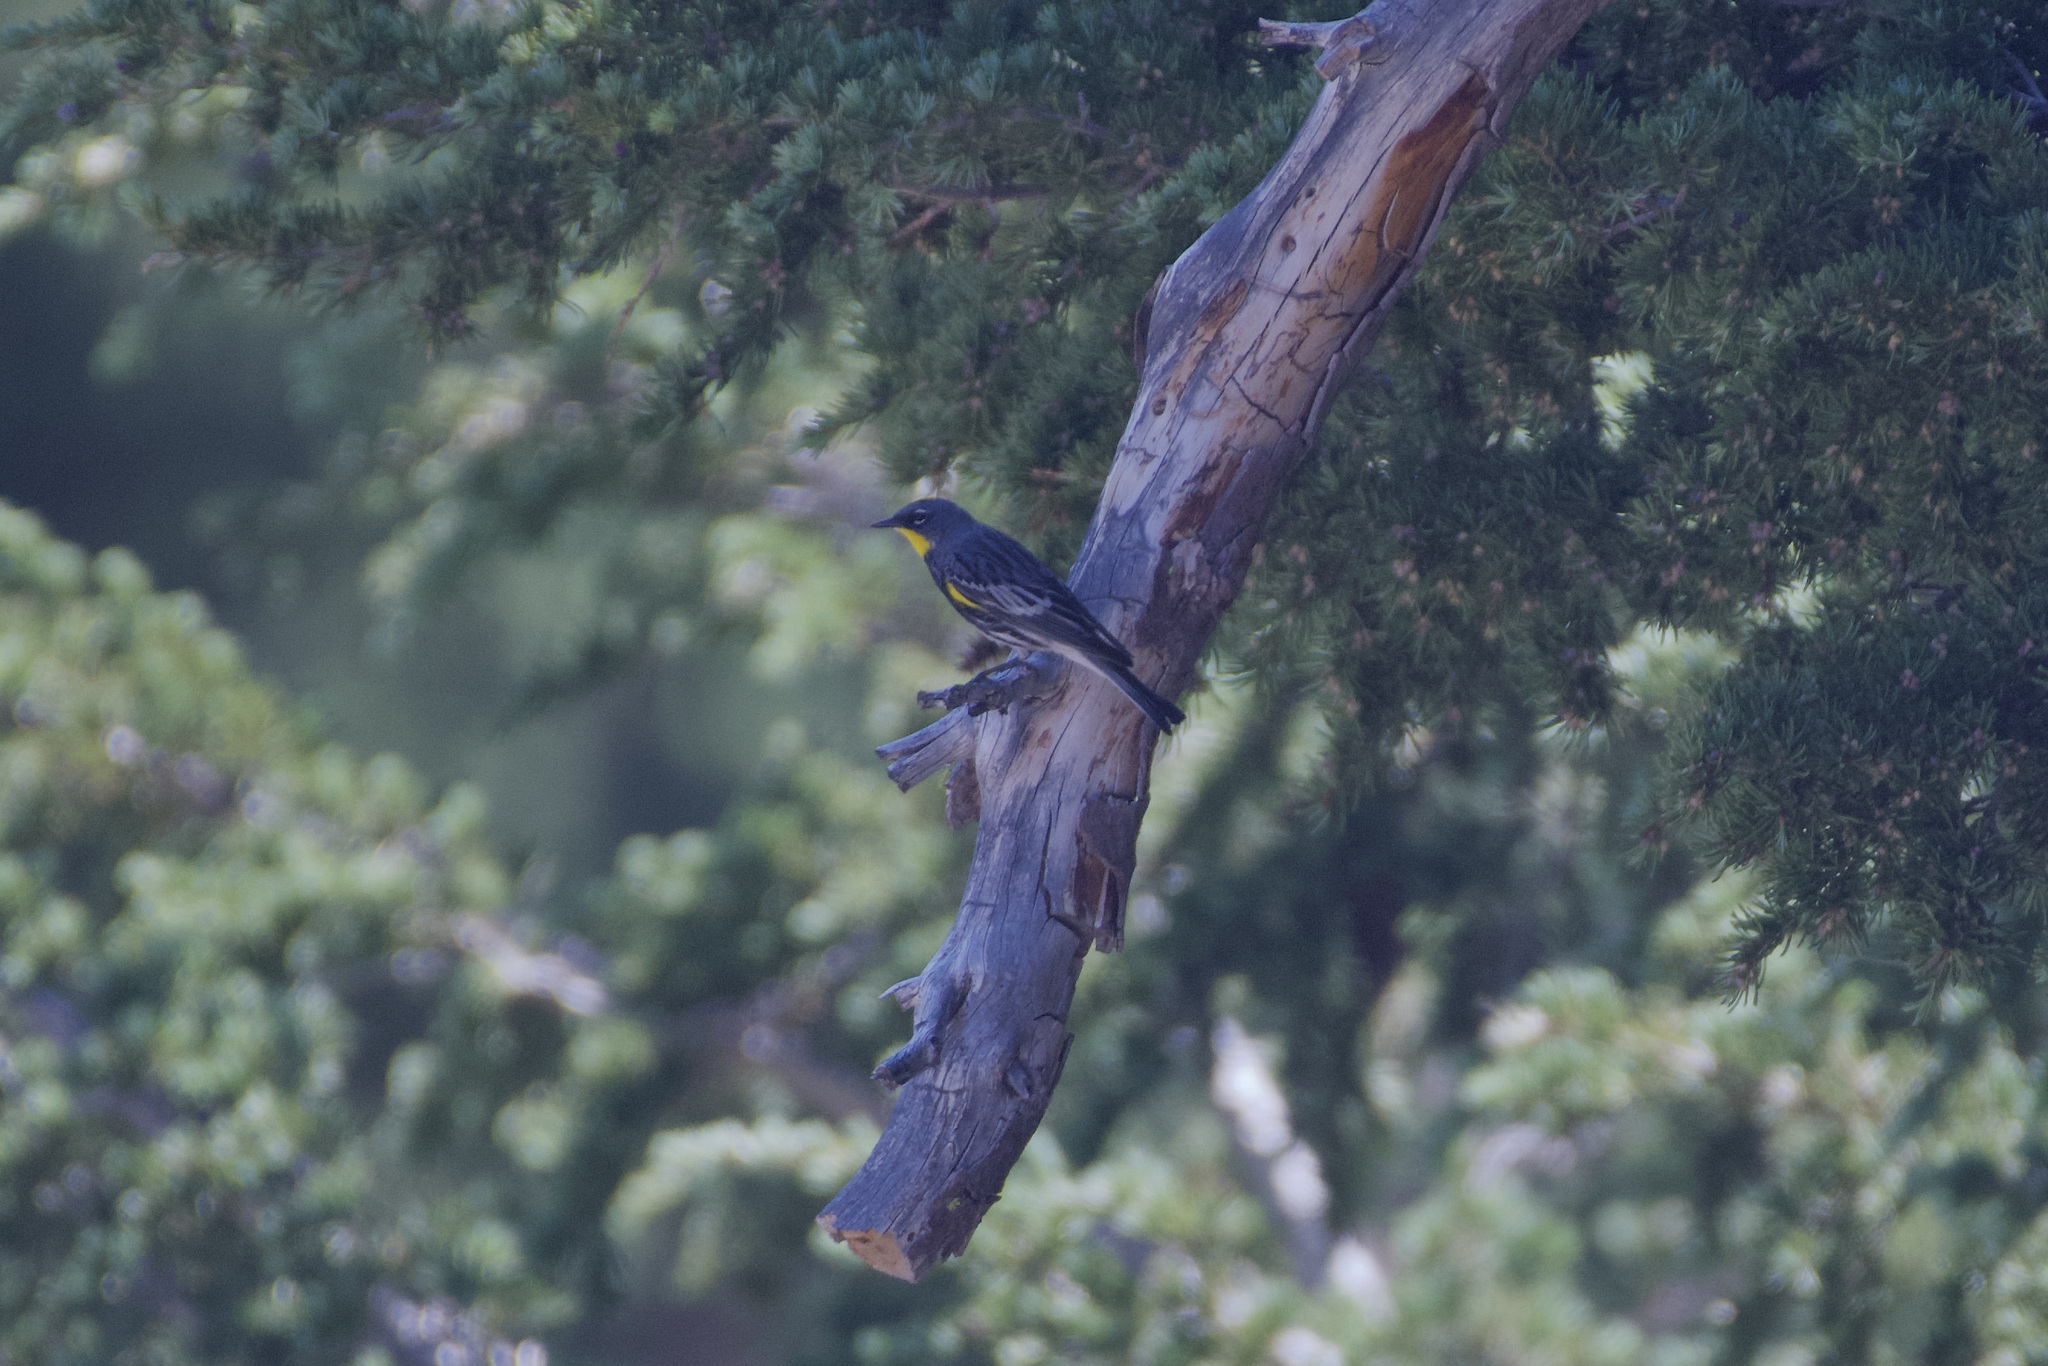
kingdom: Animalia
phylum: Chordata
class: Aves
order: Passeriformes
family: Parulidae
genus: Setophaga
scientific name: Setophaga auduboni
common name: Audubon's warbler
